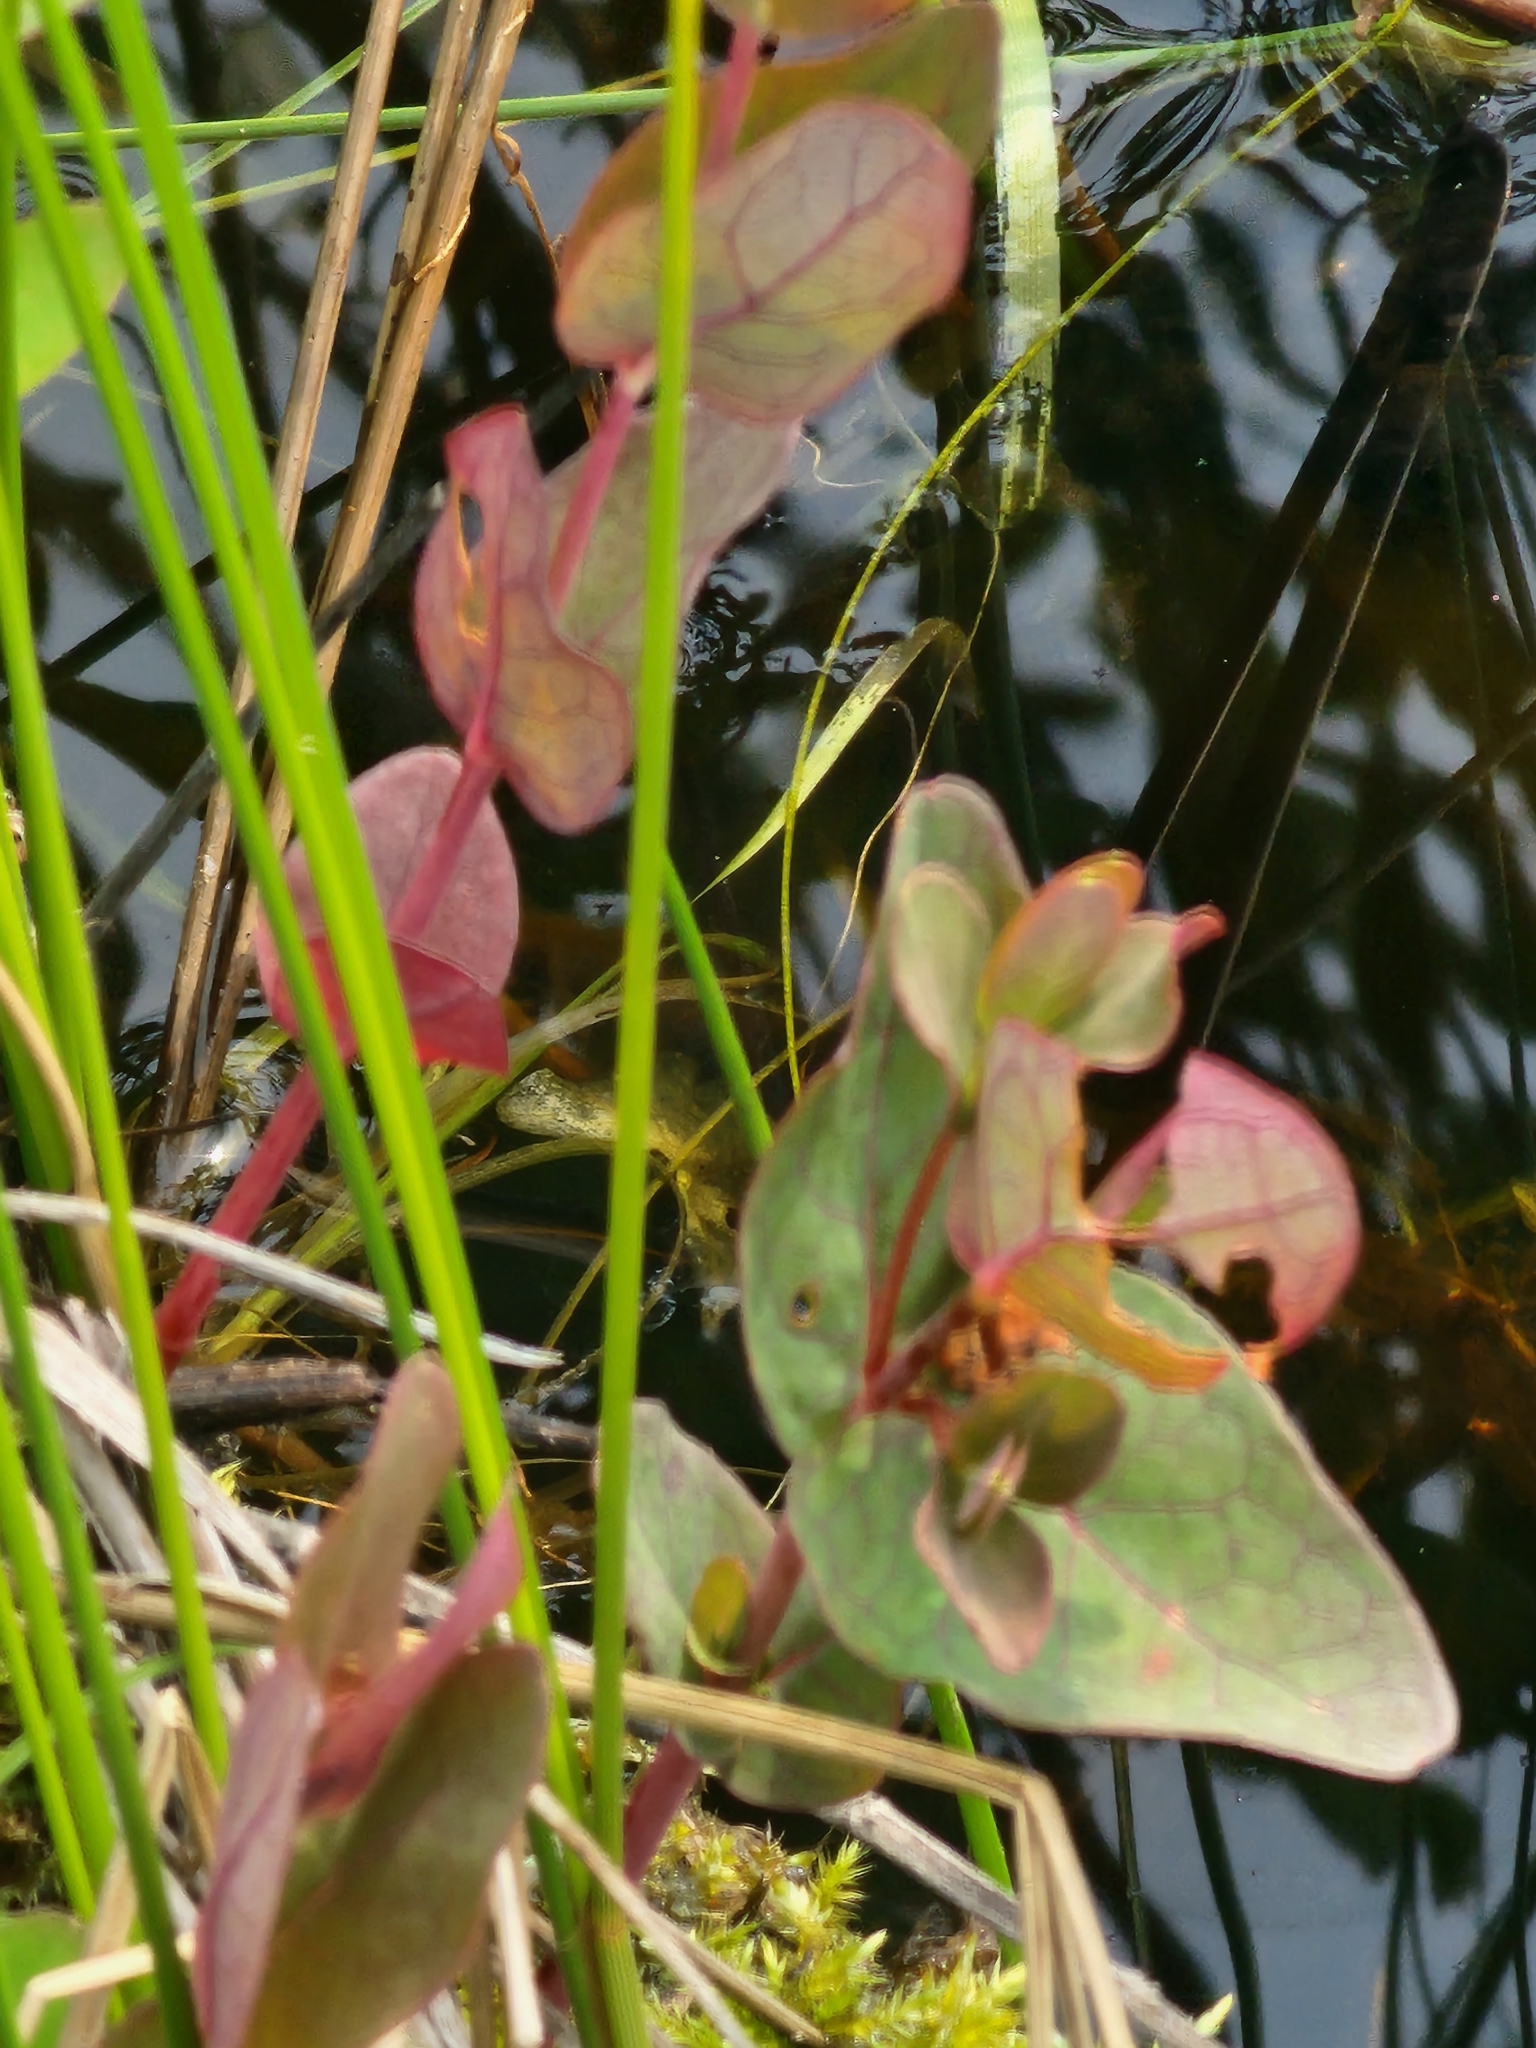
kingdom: Plantae
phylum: Tracheophyta
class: Magnoliopsida
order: Malpighiales
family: Hypericaceae
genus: Triadenum
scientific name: Triadenum fraseri
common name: Fraser's marsh st. johnswort
